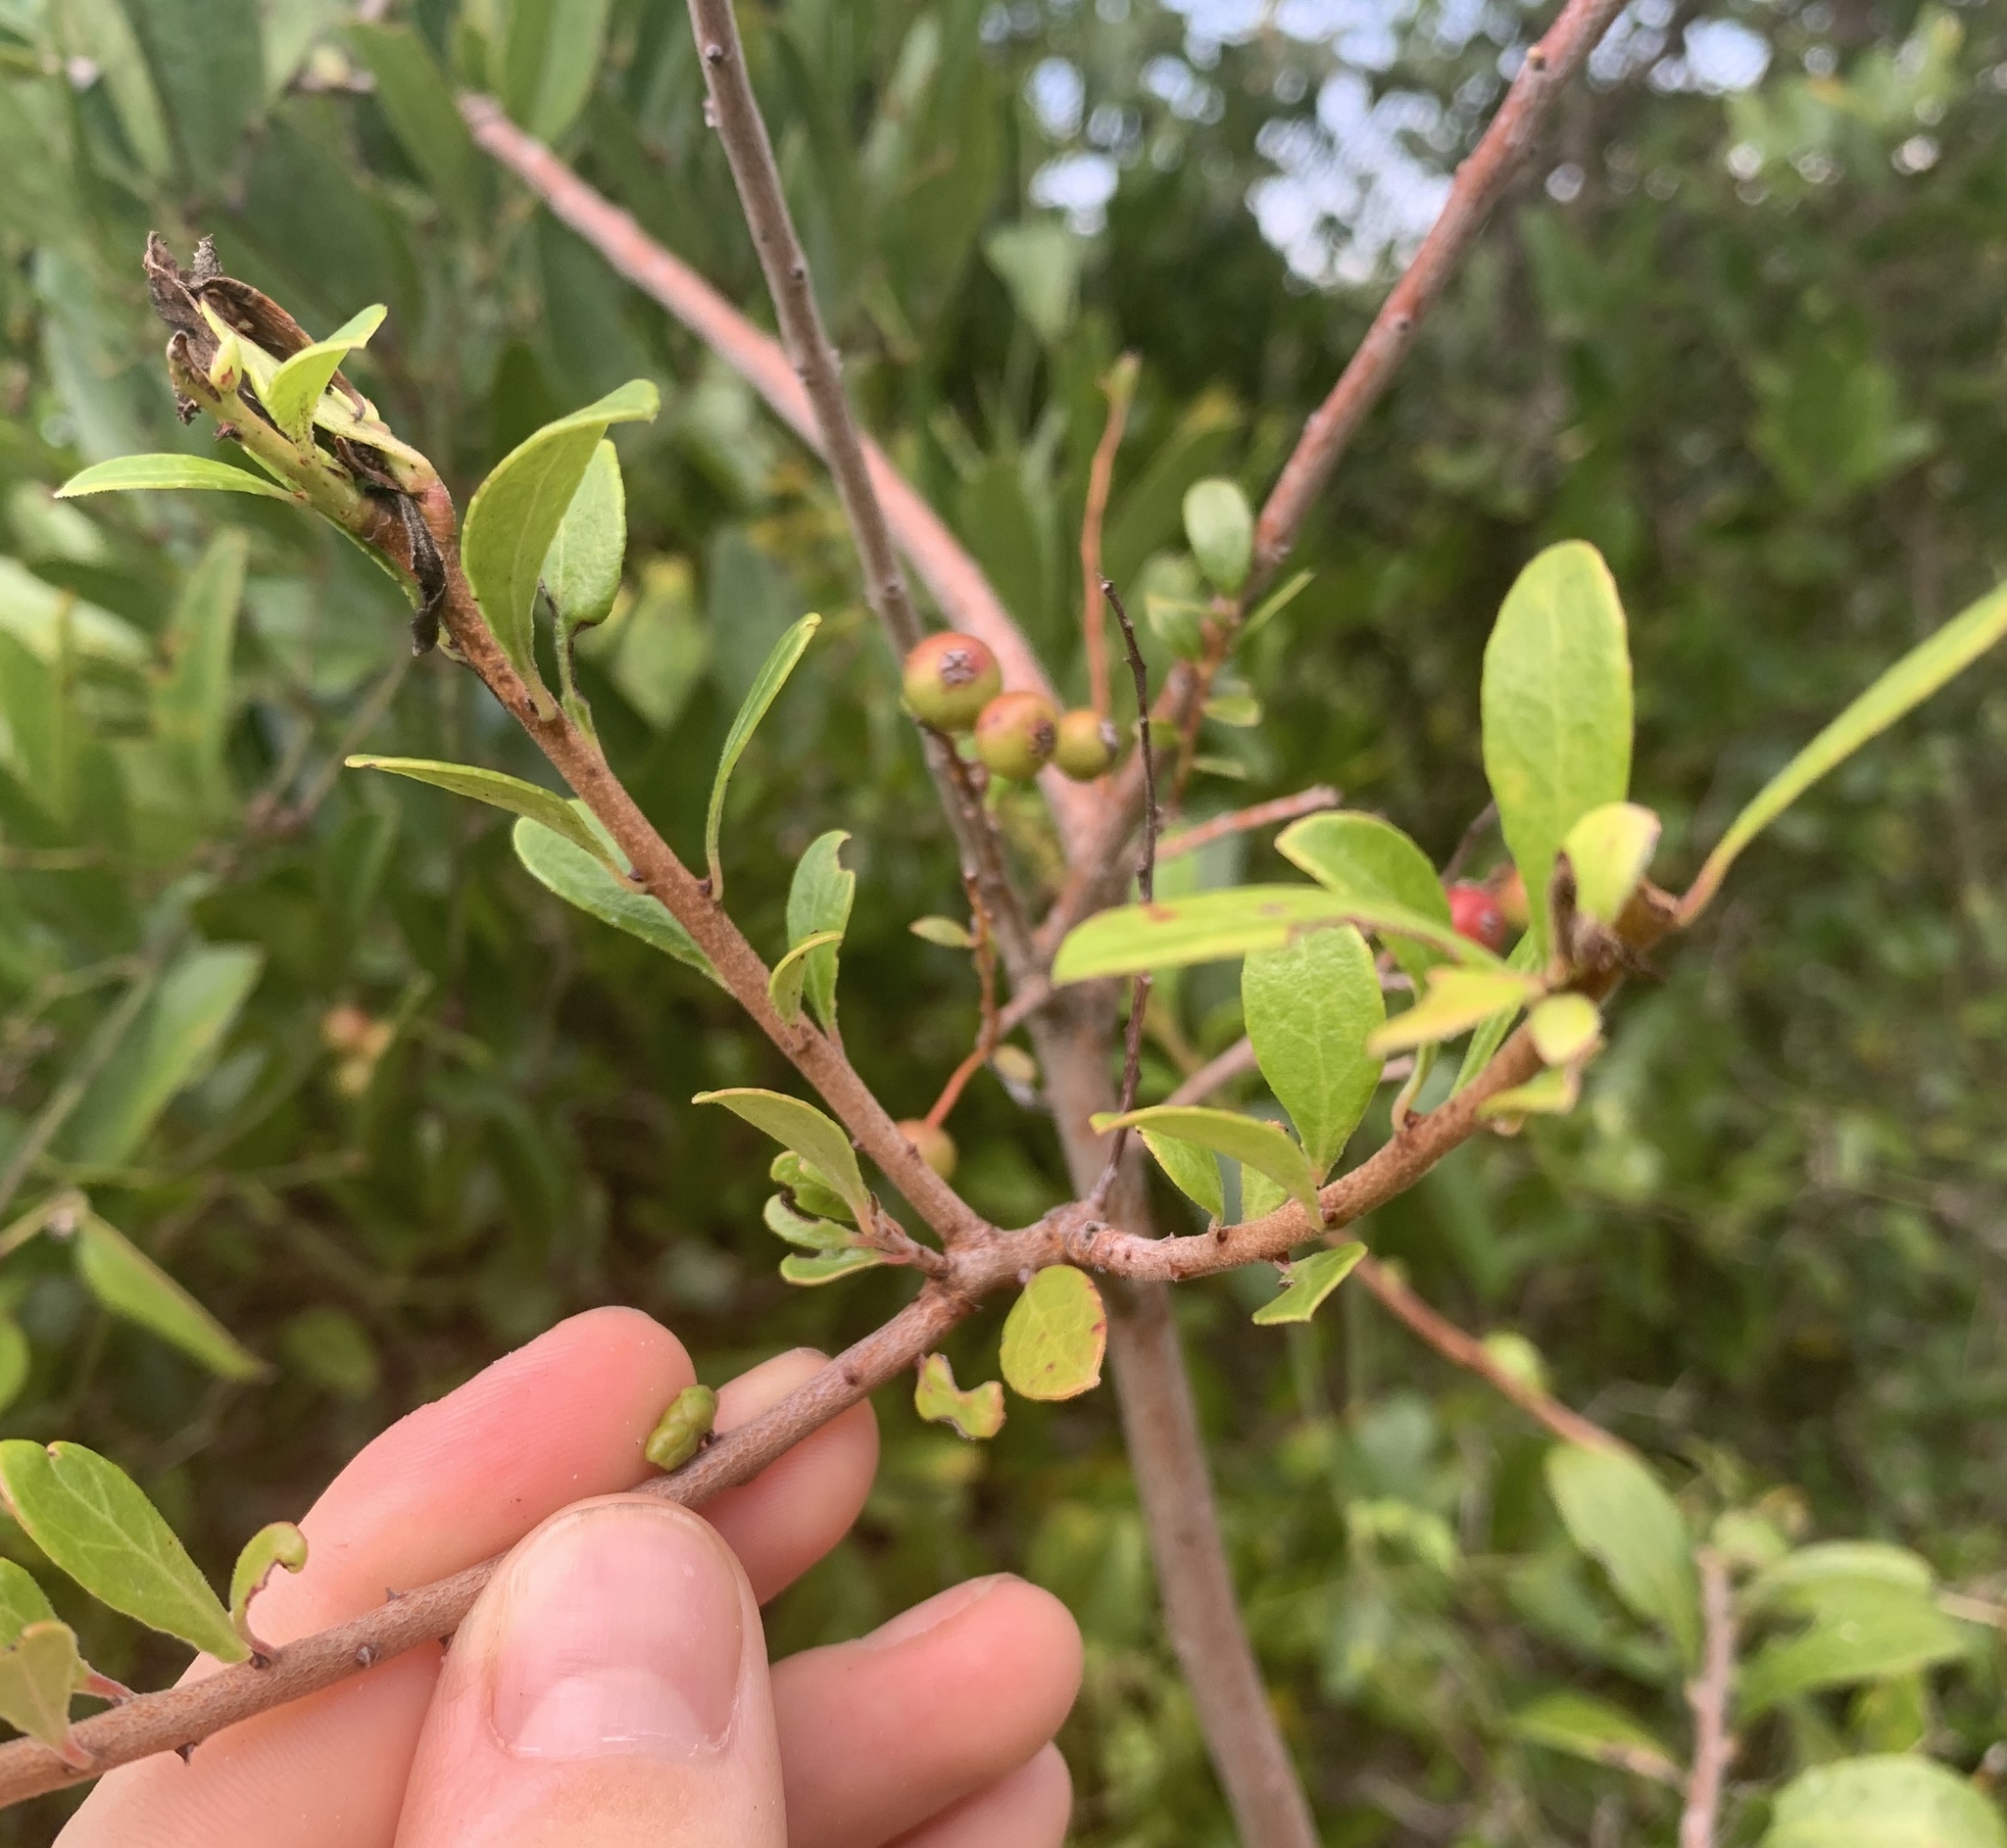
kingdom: Plantae
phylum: Tracheophyta
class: Magnoliopsida
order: Ericales
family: Ericaceae
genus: Vaccinium
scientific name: Vaccinium arboreum
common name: Farkleberry
